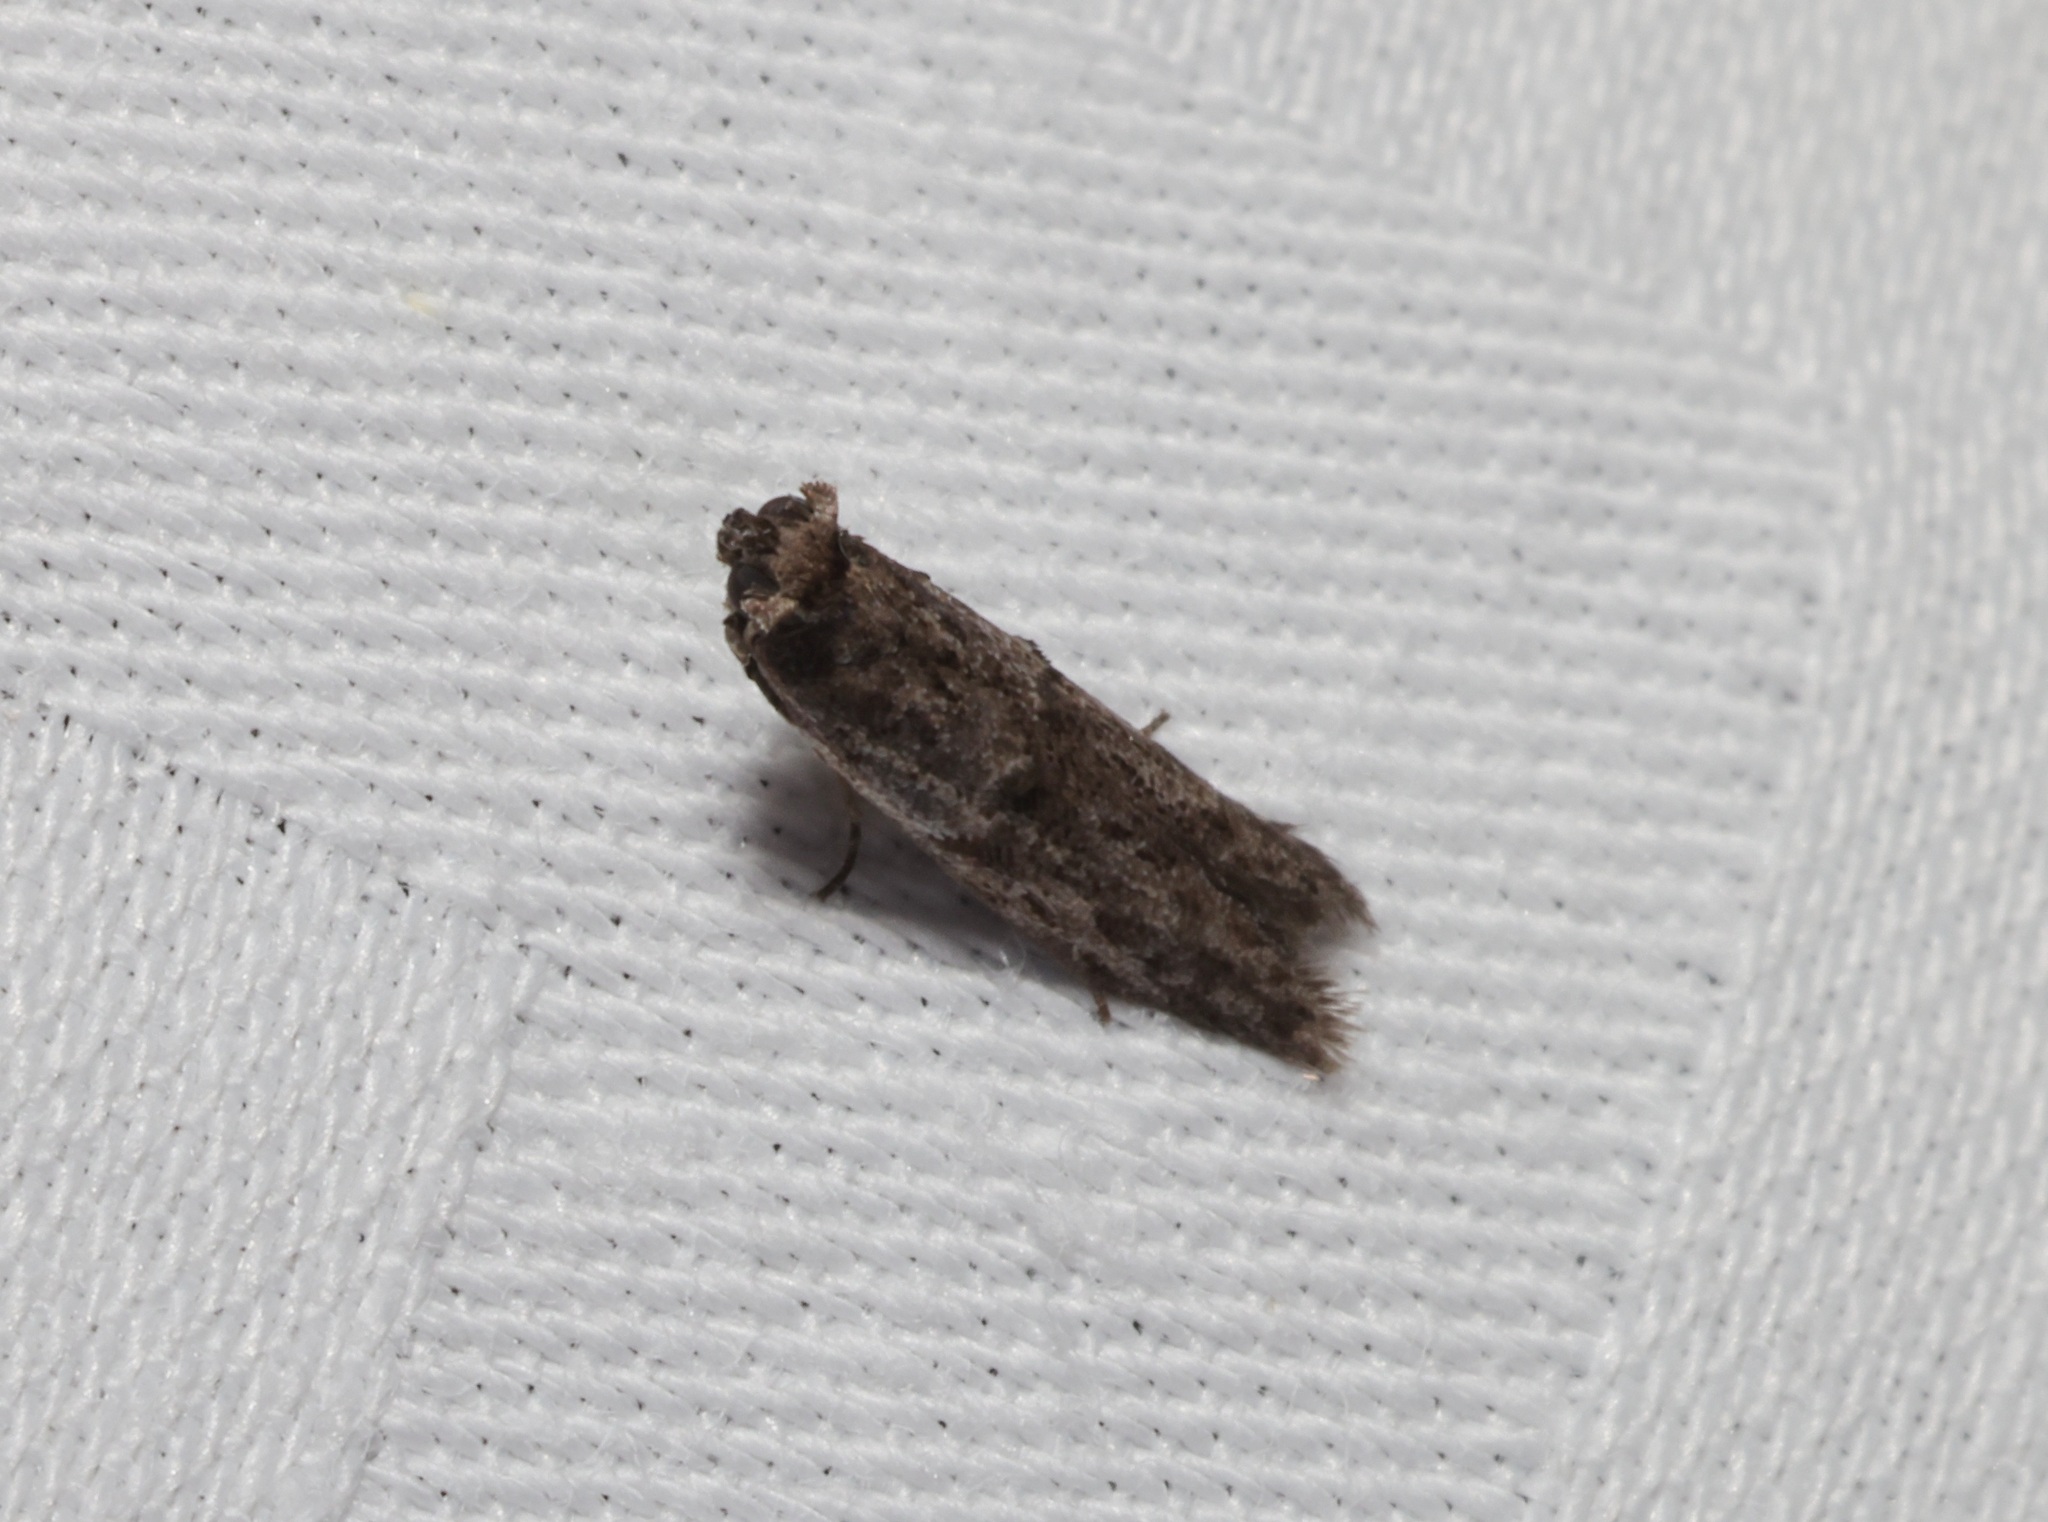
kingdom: Animalia
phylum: Arthropoda
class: Insecta
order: Lepidoptera
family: Pyralidae
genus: Copamyntis
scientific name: Copamyntis leptocosma
